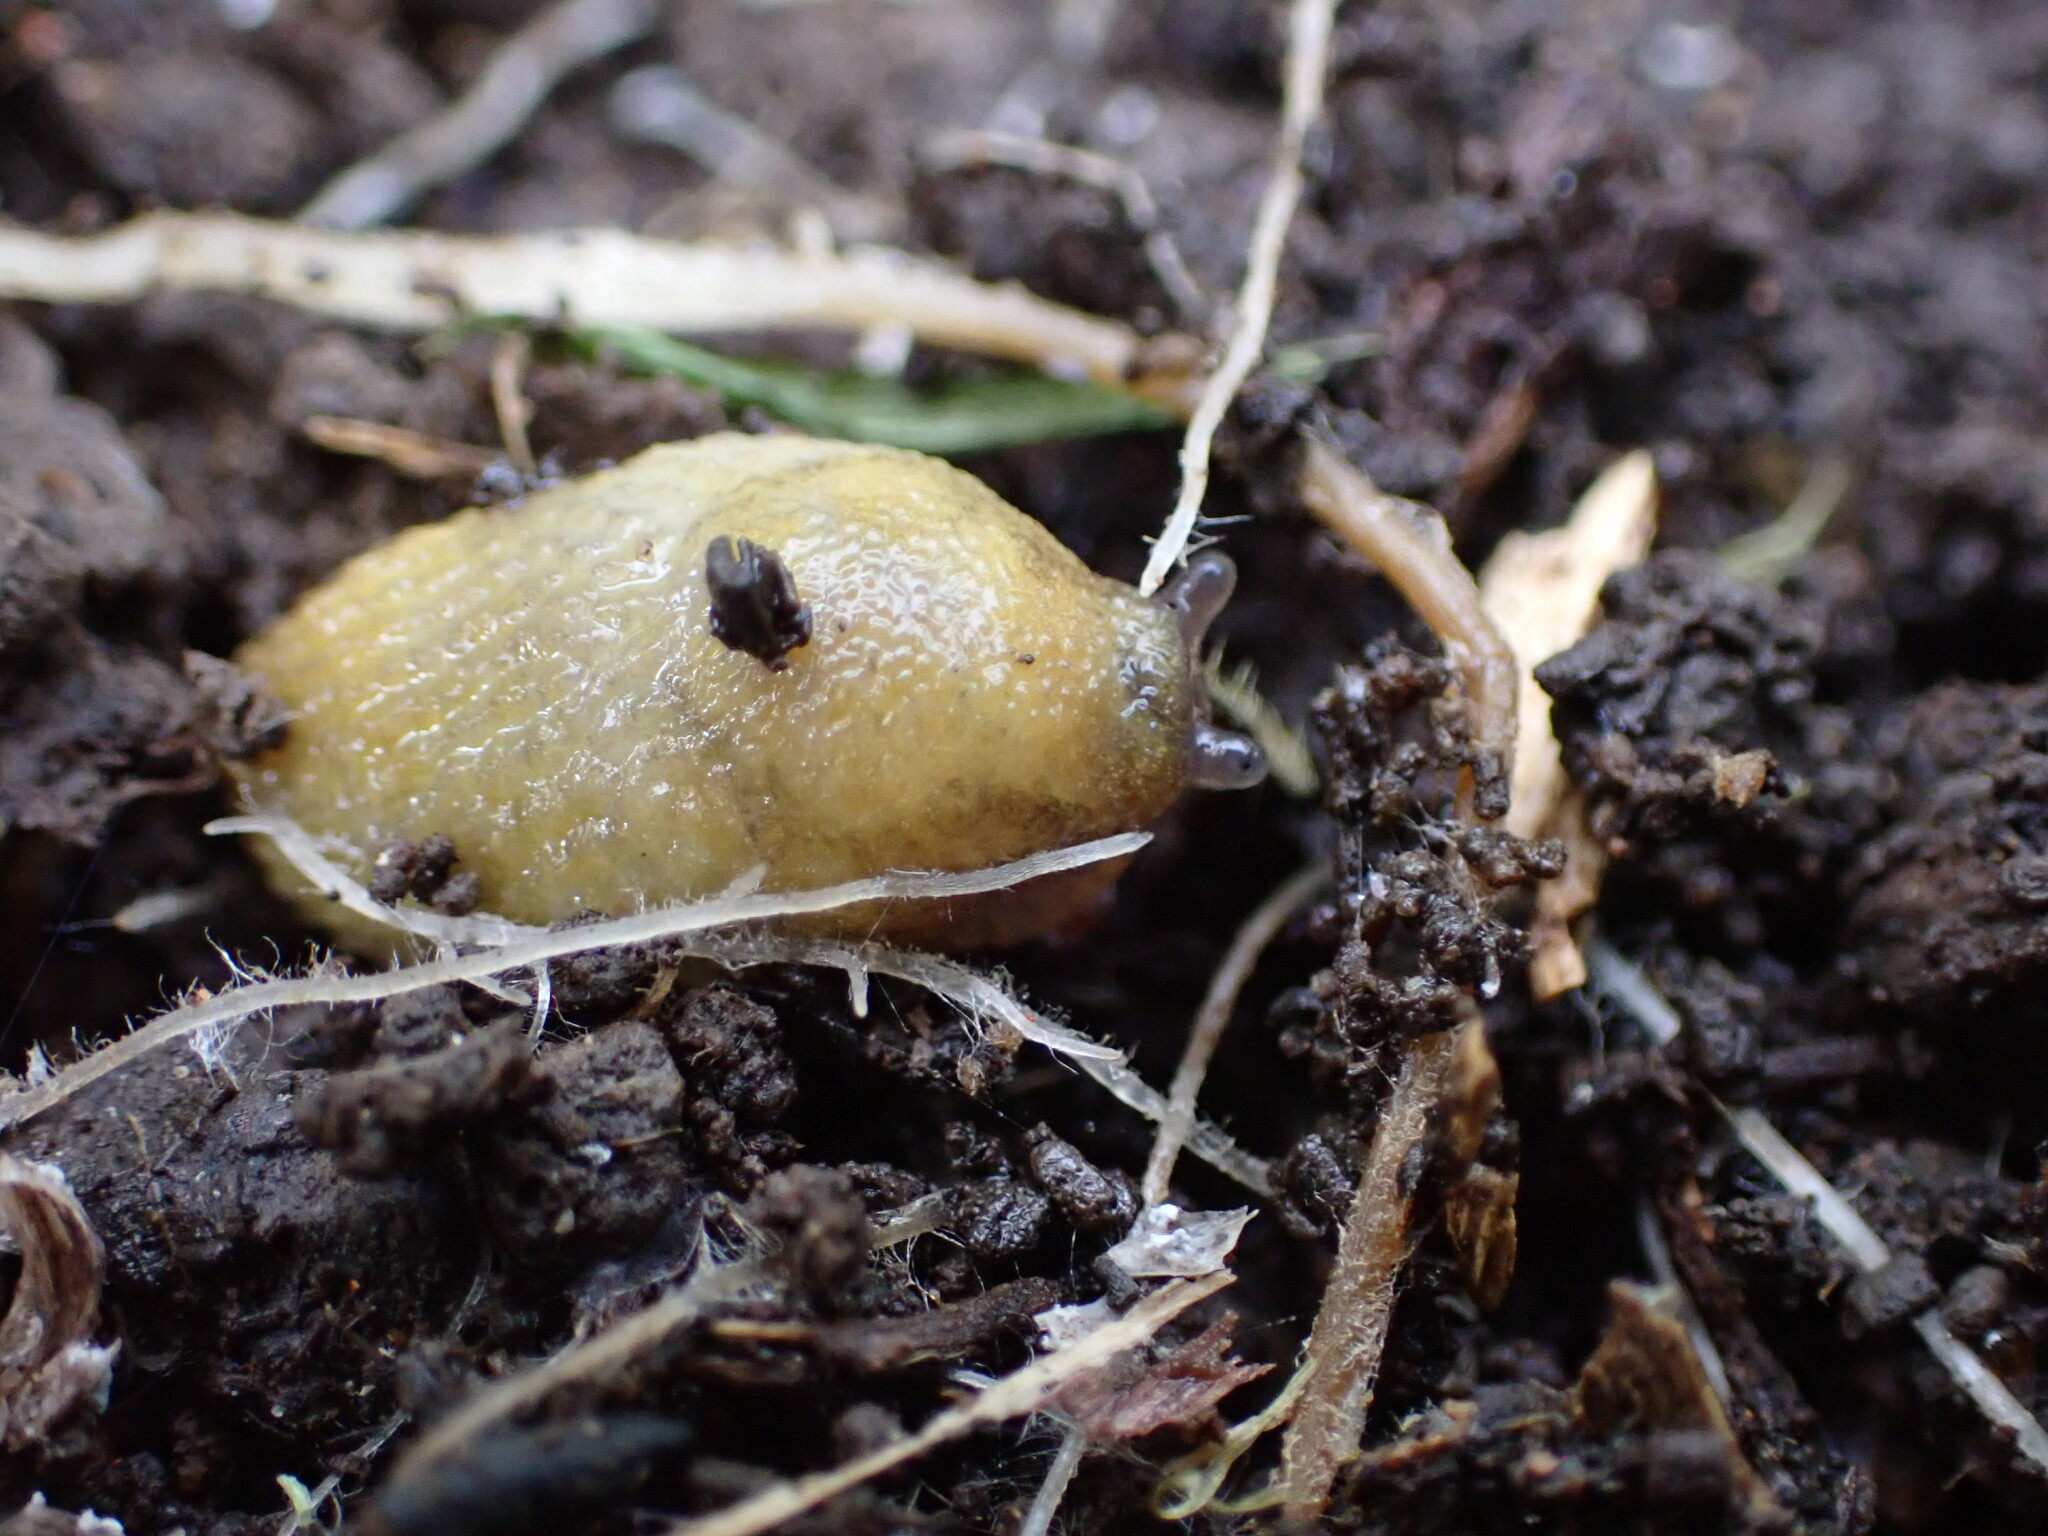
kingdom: Animalia
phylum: Mollusca
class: Gastropoda
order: Stylommatophora
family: Arionidae
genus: Arion
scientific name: Arion intermedius
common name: Hedgehog slug
